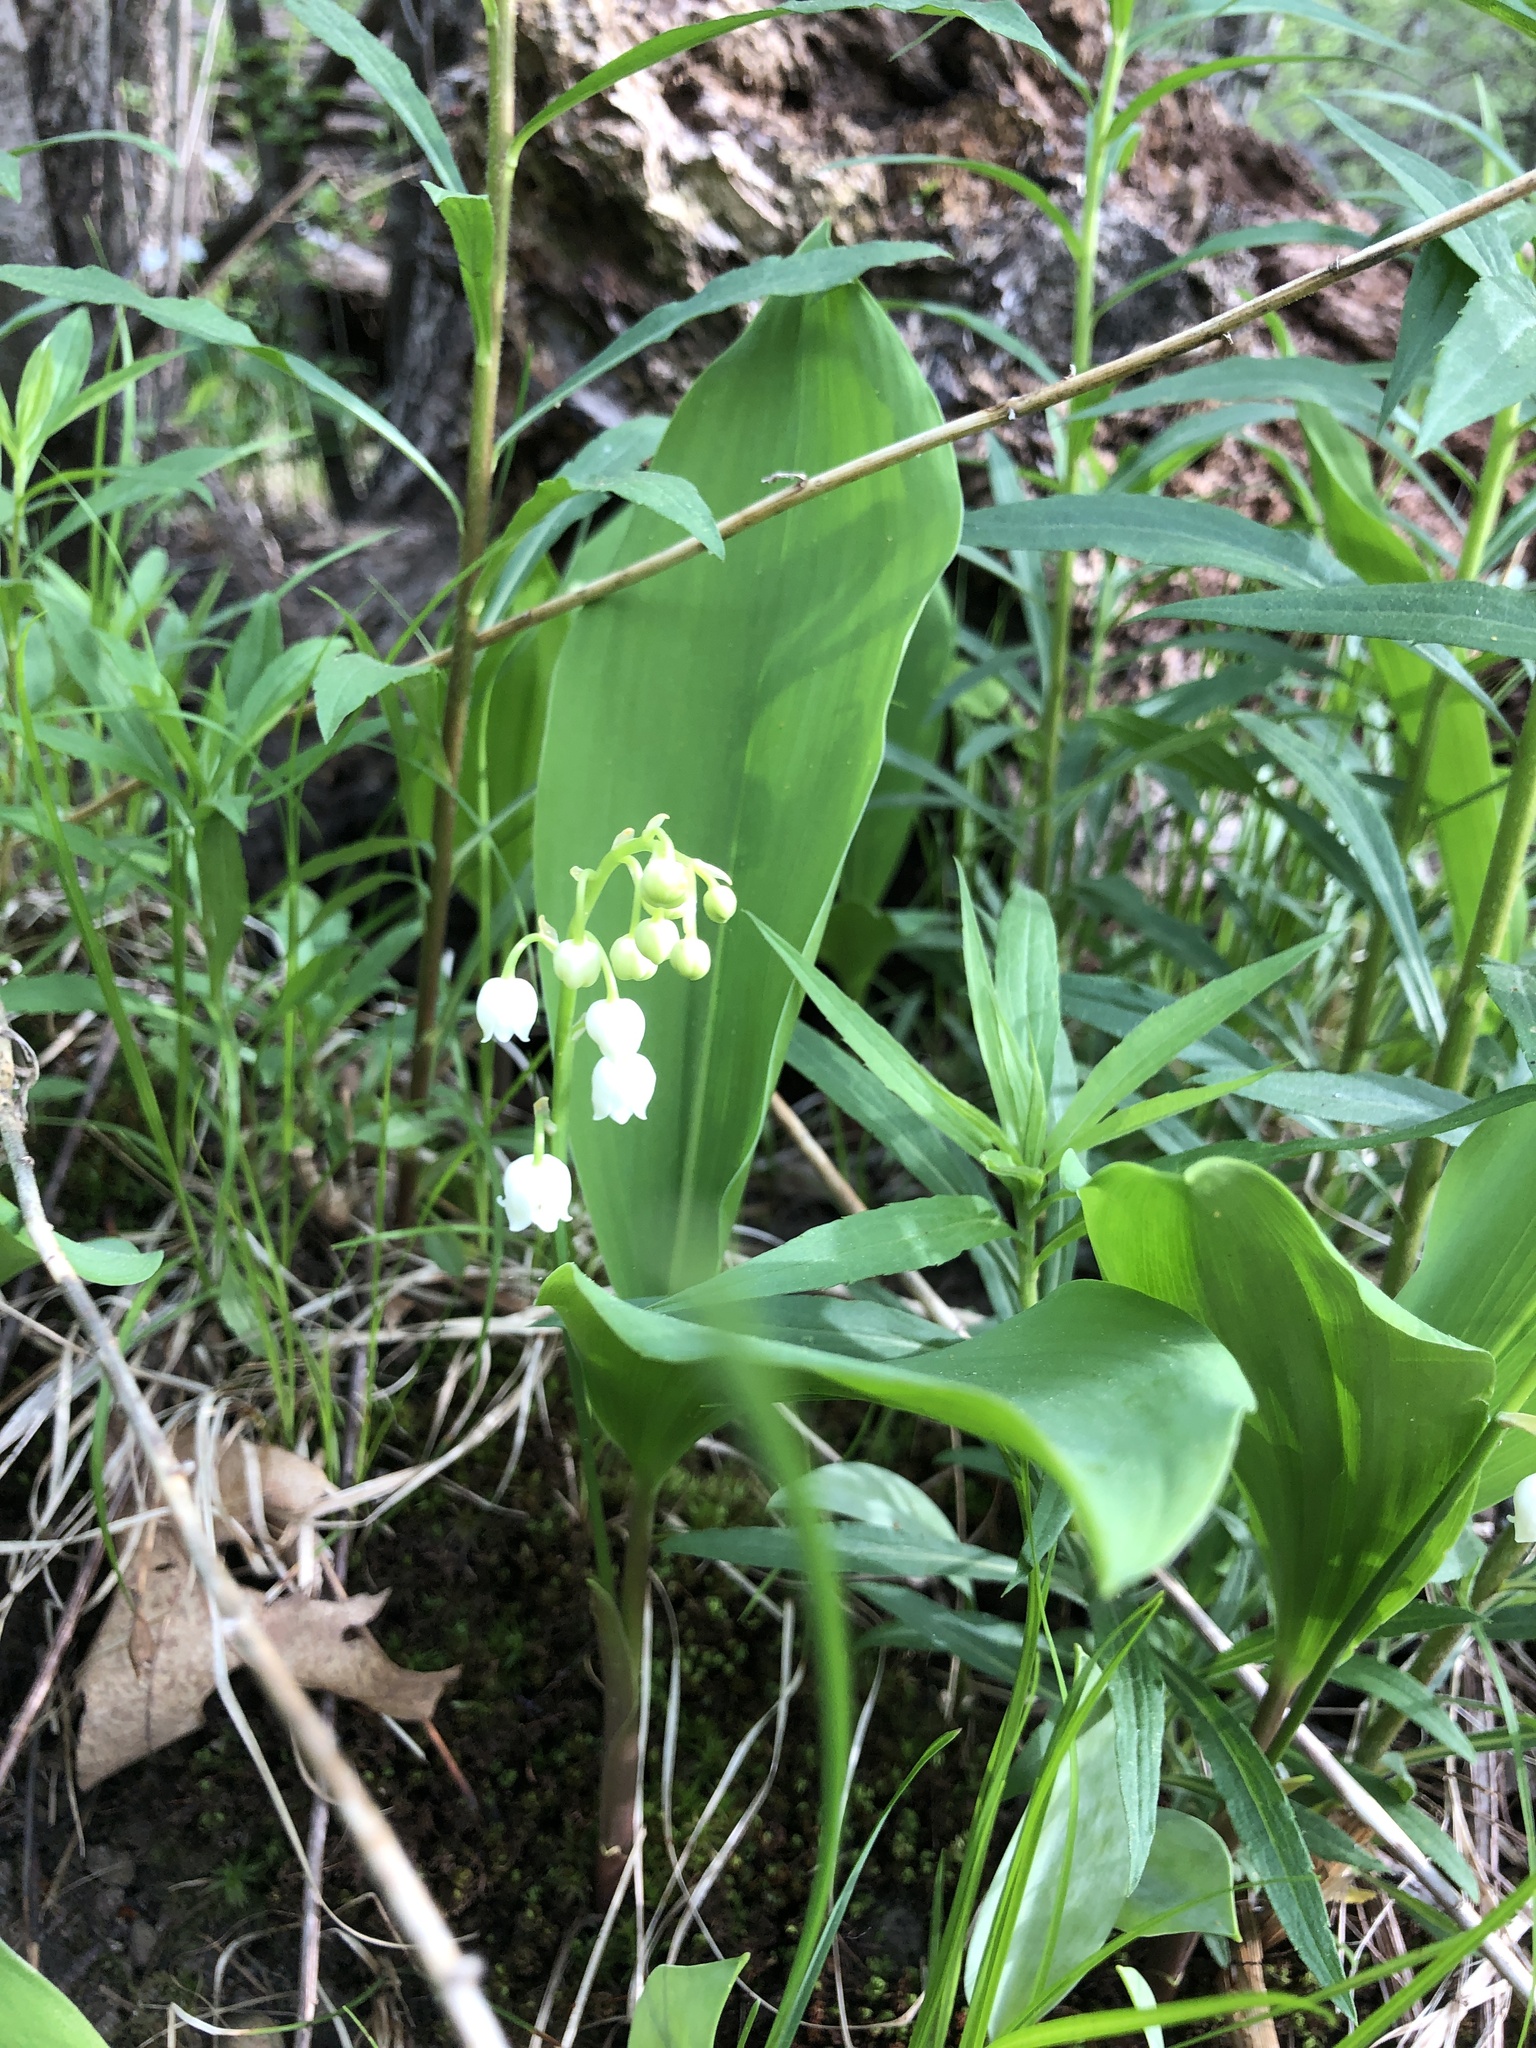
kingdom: Plantae
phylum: Tracheophyta
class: Liliopsida
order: Asparagales
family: Asparagaceae
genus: Convallaria
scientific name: Convallaria majalis
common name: Lily-of-the-valley
